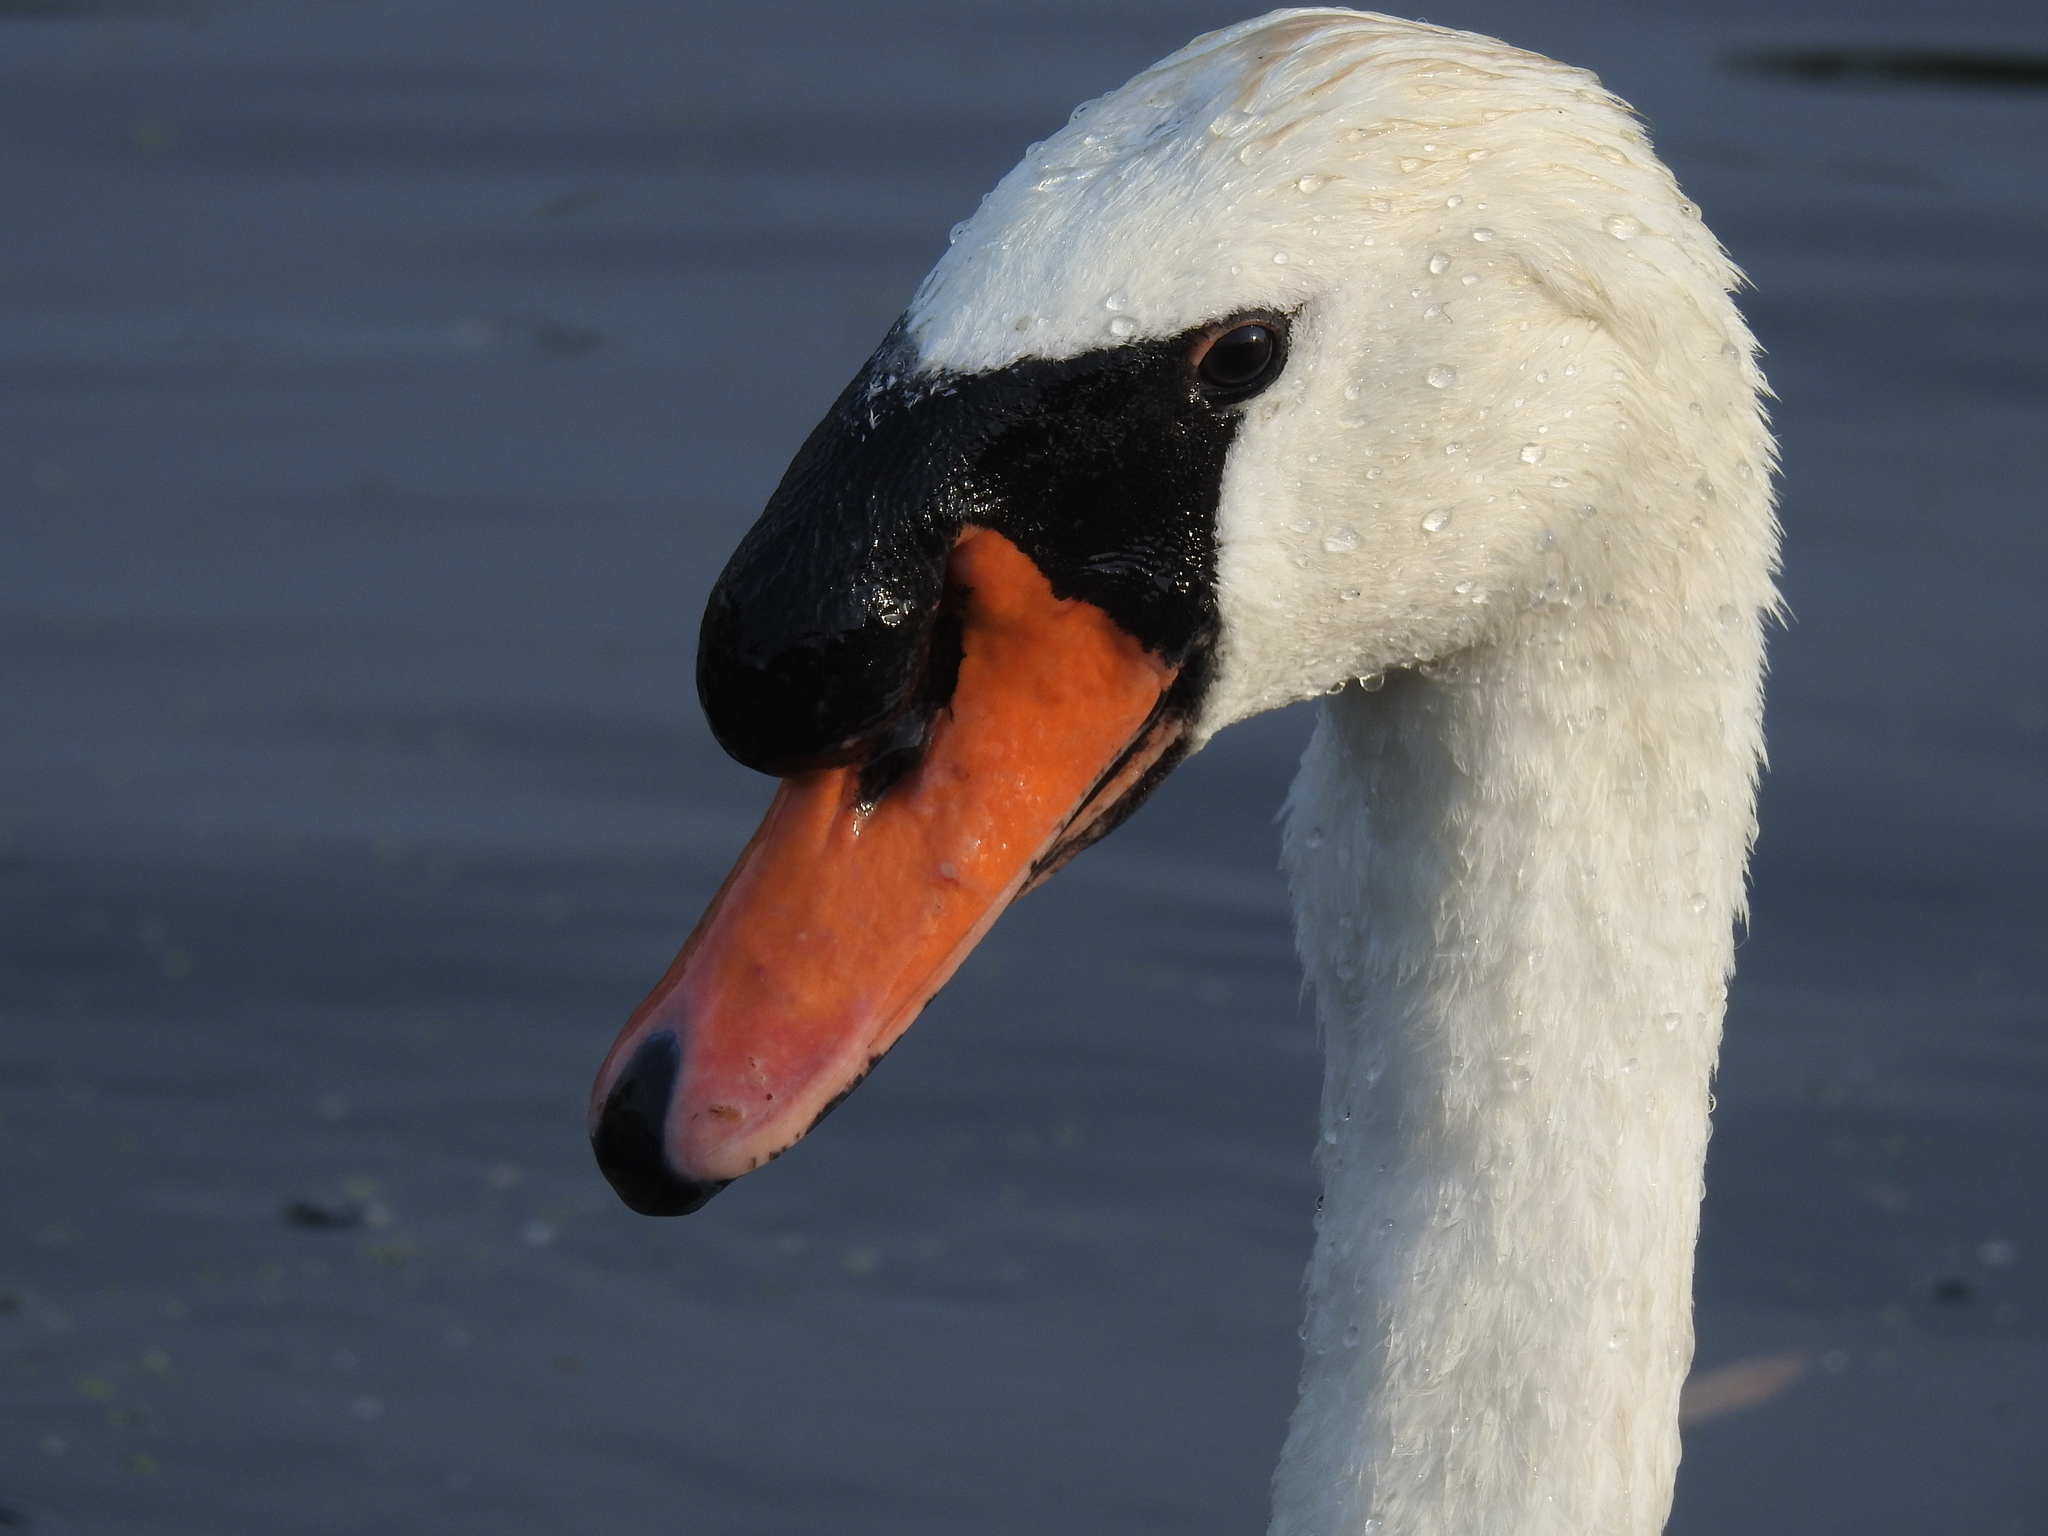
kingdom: Animalia
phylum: Chordata
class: Aves
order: Anseriformes
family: Anatidae
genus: Cygnus
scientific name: Cygnus olor
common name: Mute swan
